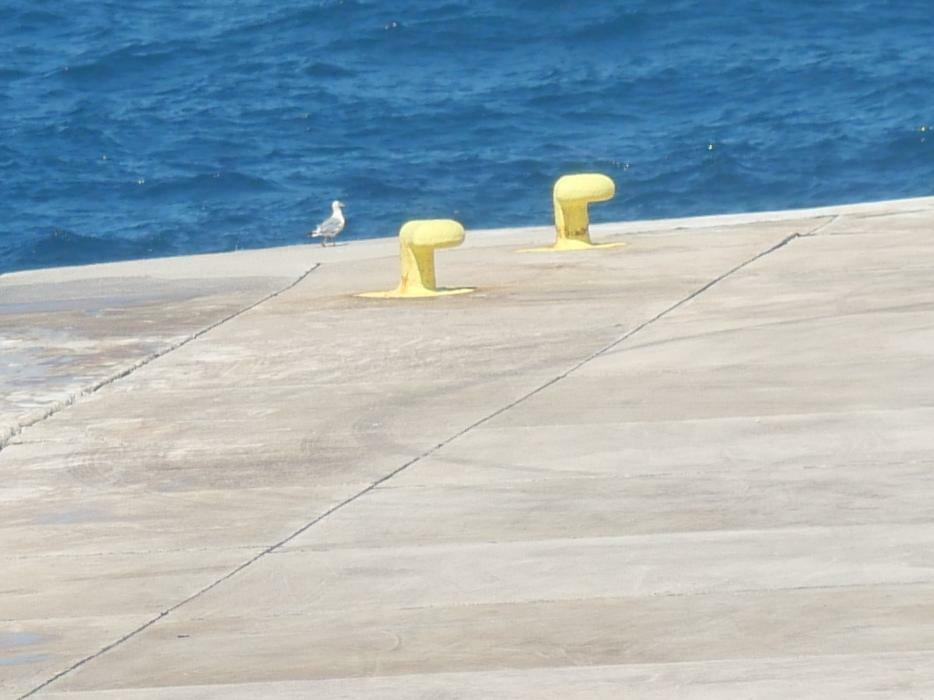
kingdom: Animalia
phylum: Chordata
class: Aves
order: Charadriiformes
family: Laridae
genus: Larus
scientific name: Larus michahellis
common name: Yellow-legged gull
